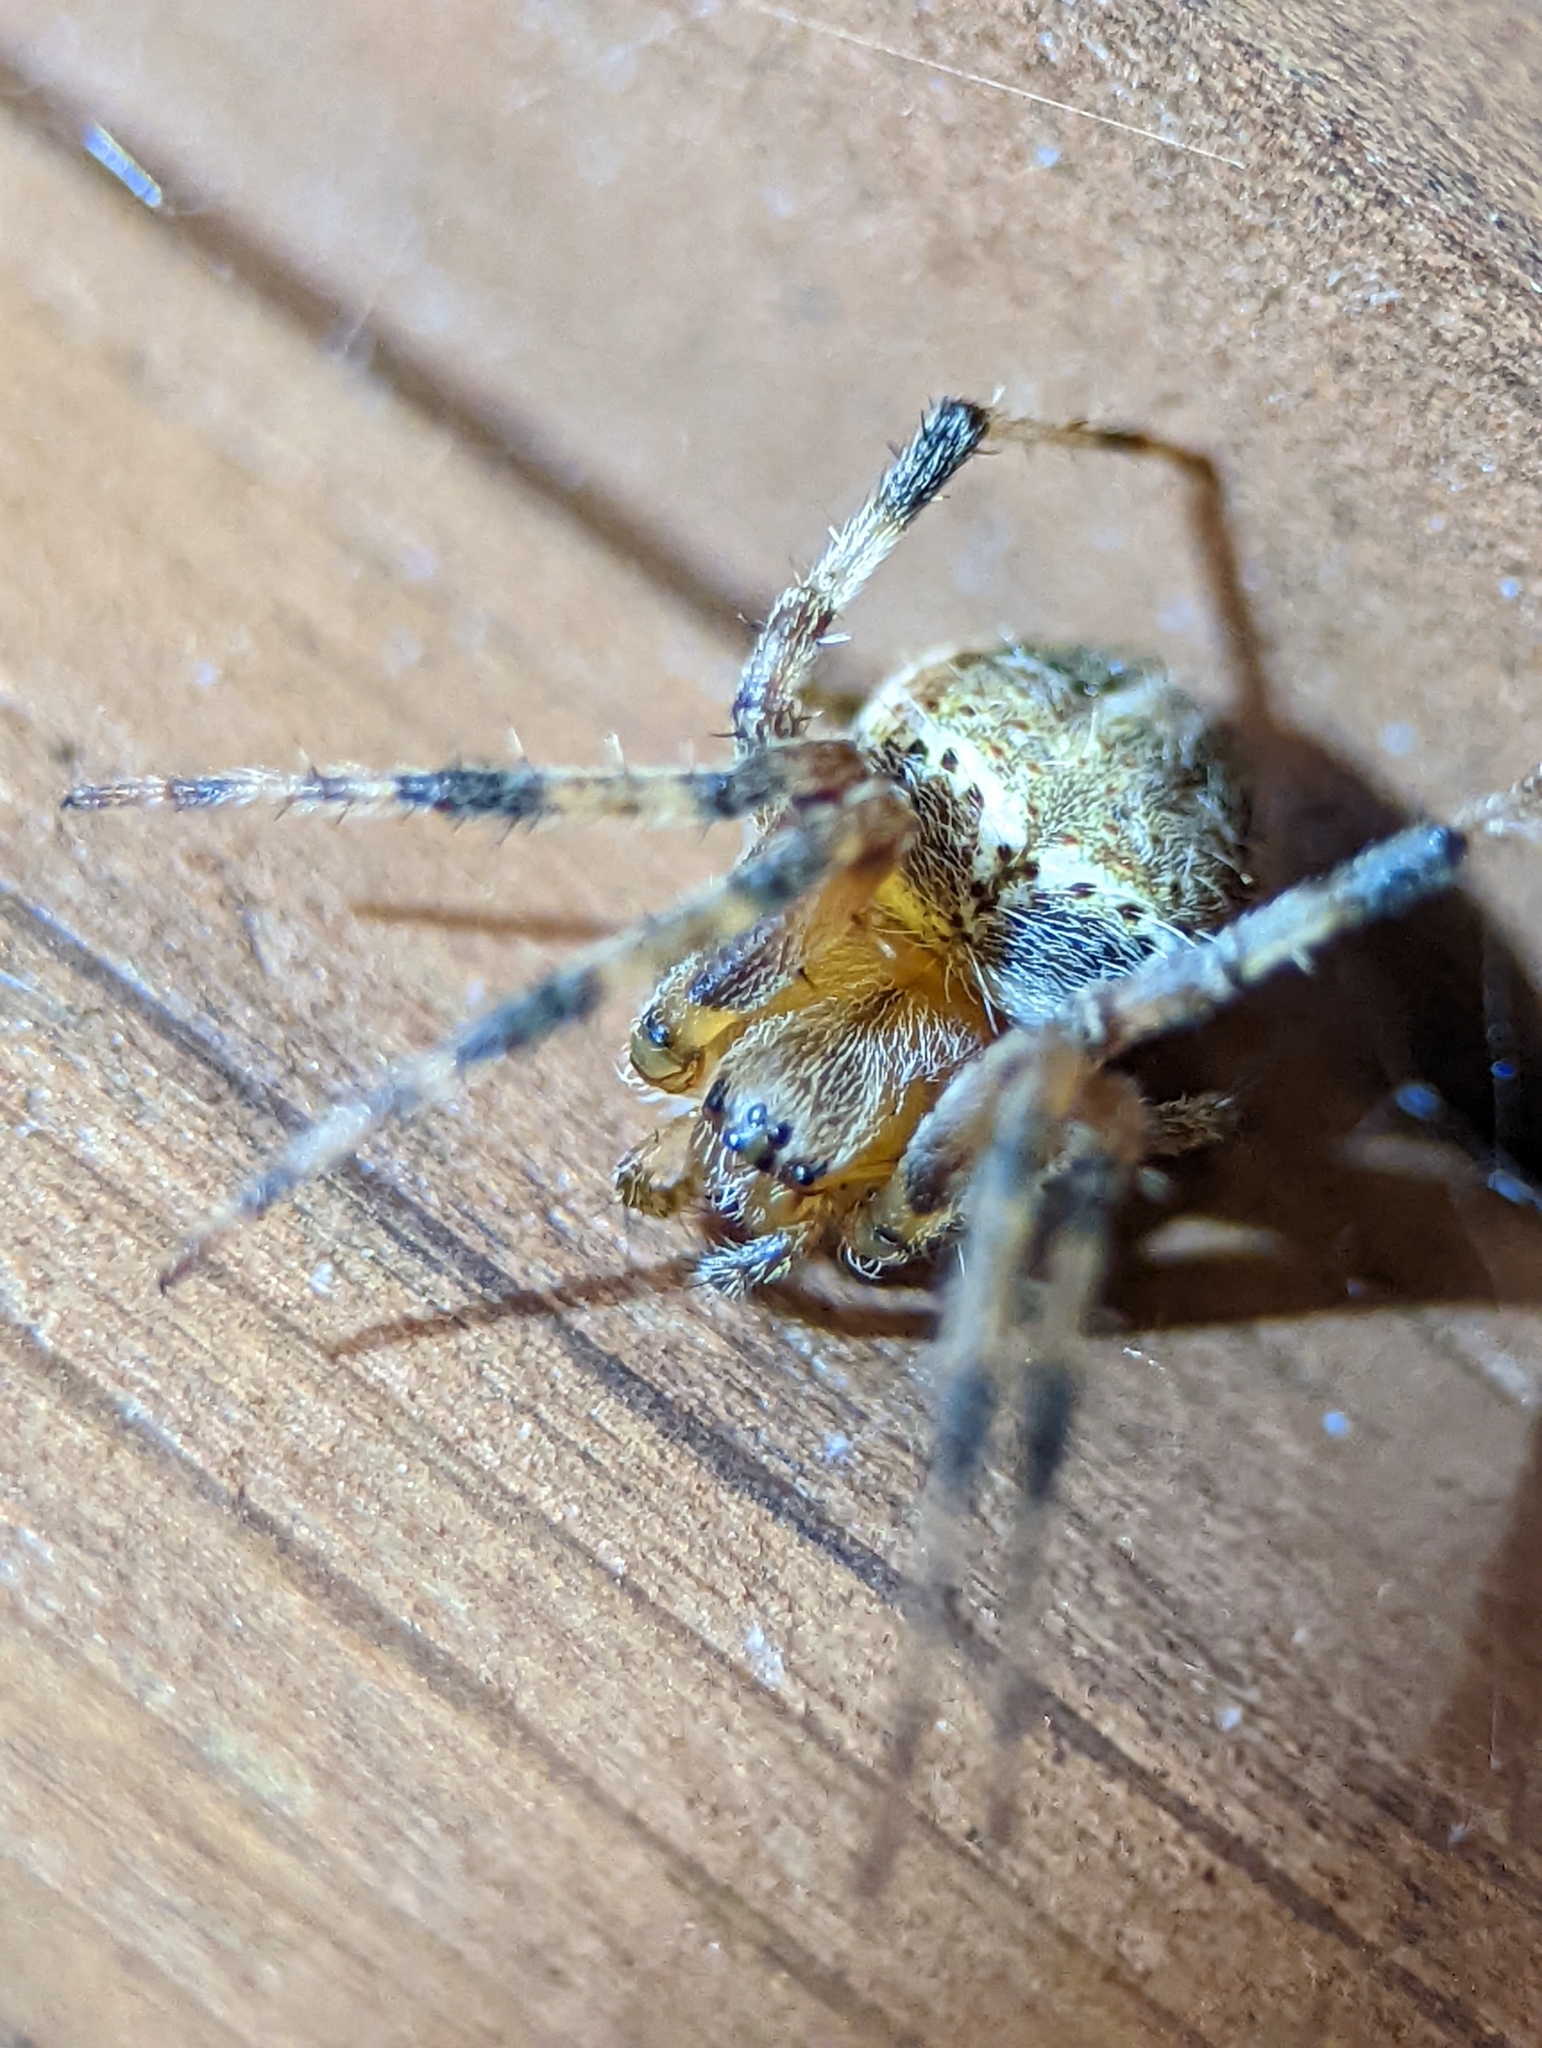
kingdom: Animalia
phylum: Arthropoda
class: Arachnida
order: Araneae
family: Araneidae
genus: Neoscona
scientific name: Neoscona domiciliorum
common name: Red-femured spotted orbweaver
